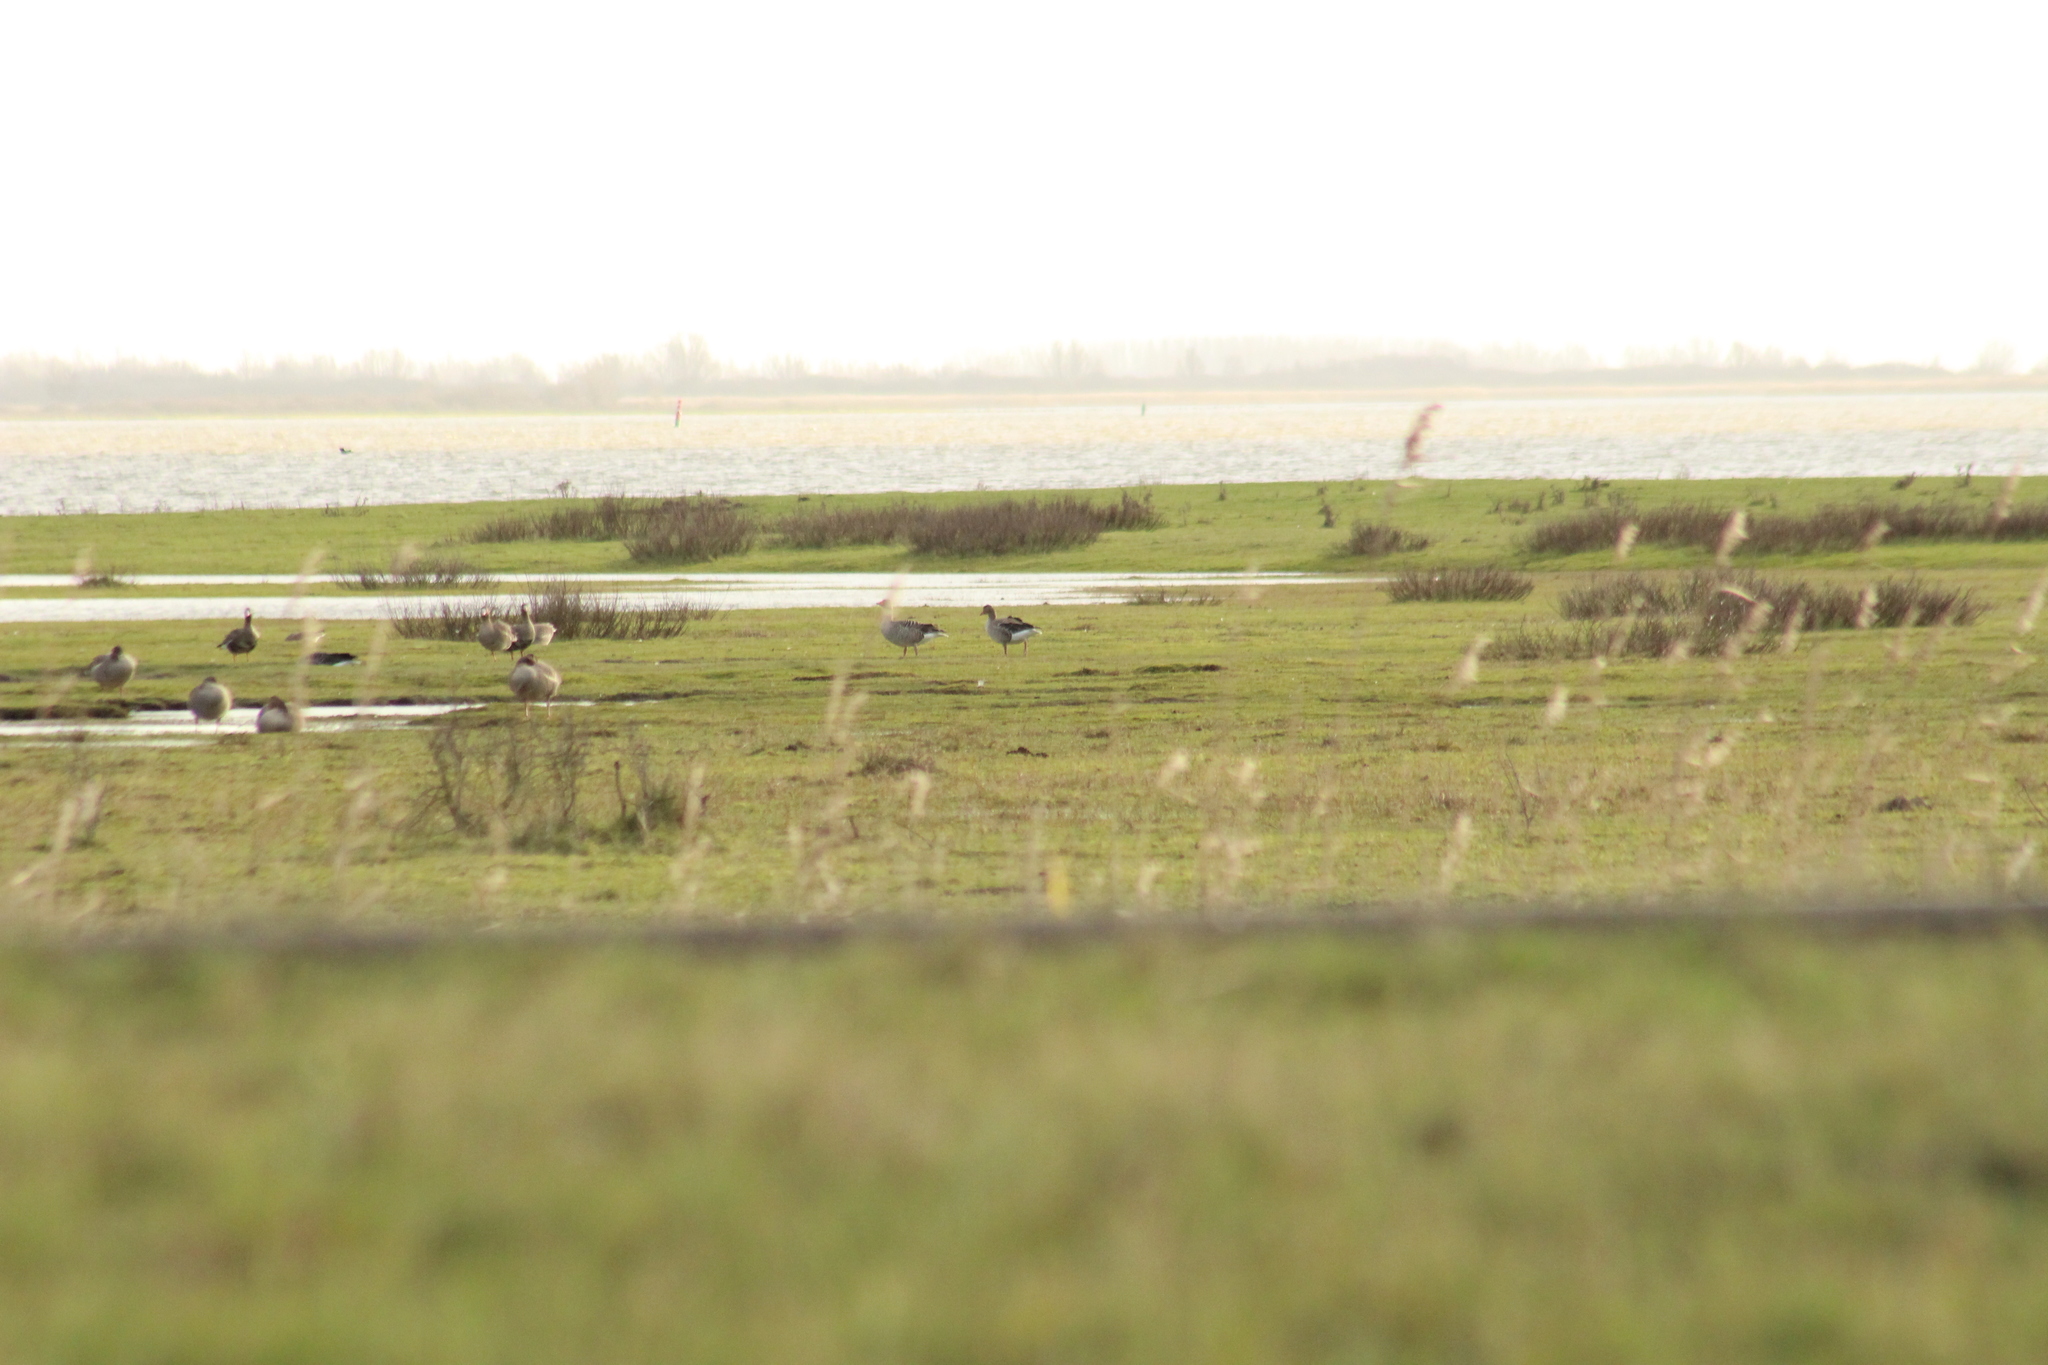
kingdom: Animalia
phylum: Chordata
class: Aves
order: Anseriformes
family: Anatidae
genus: Anser
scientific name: Anser anser
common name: Greylag goose
